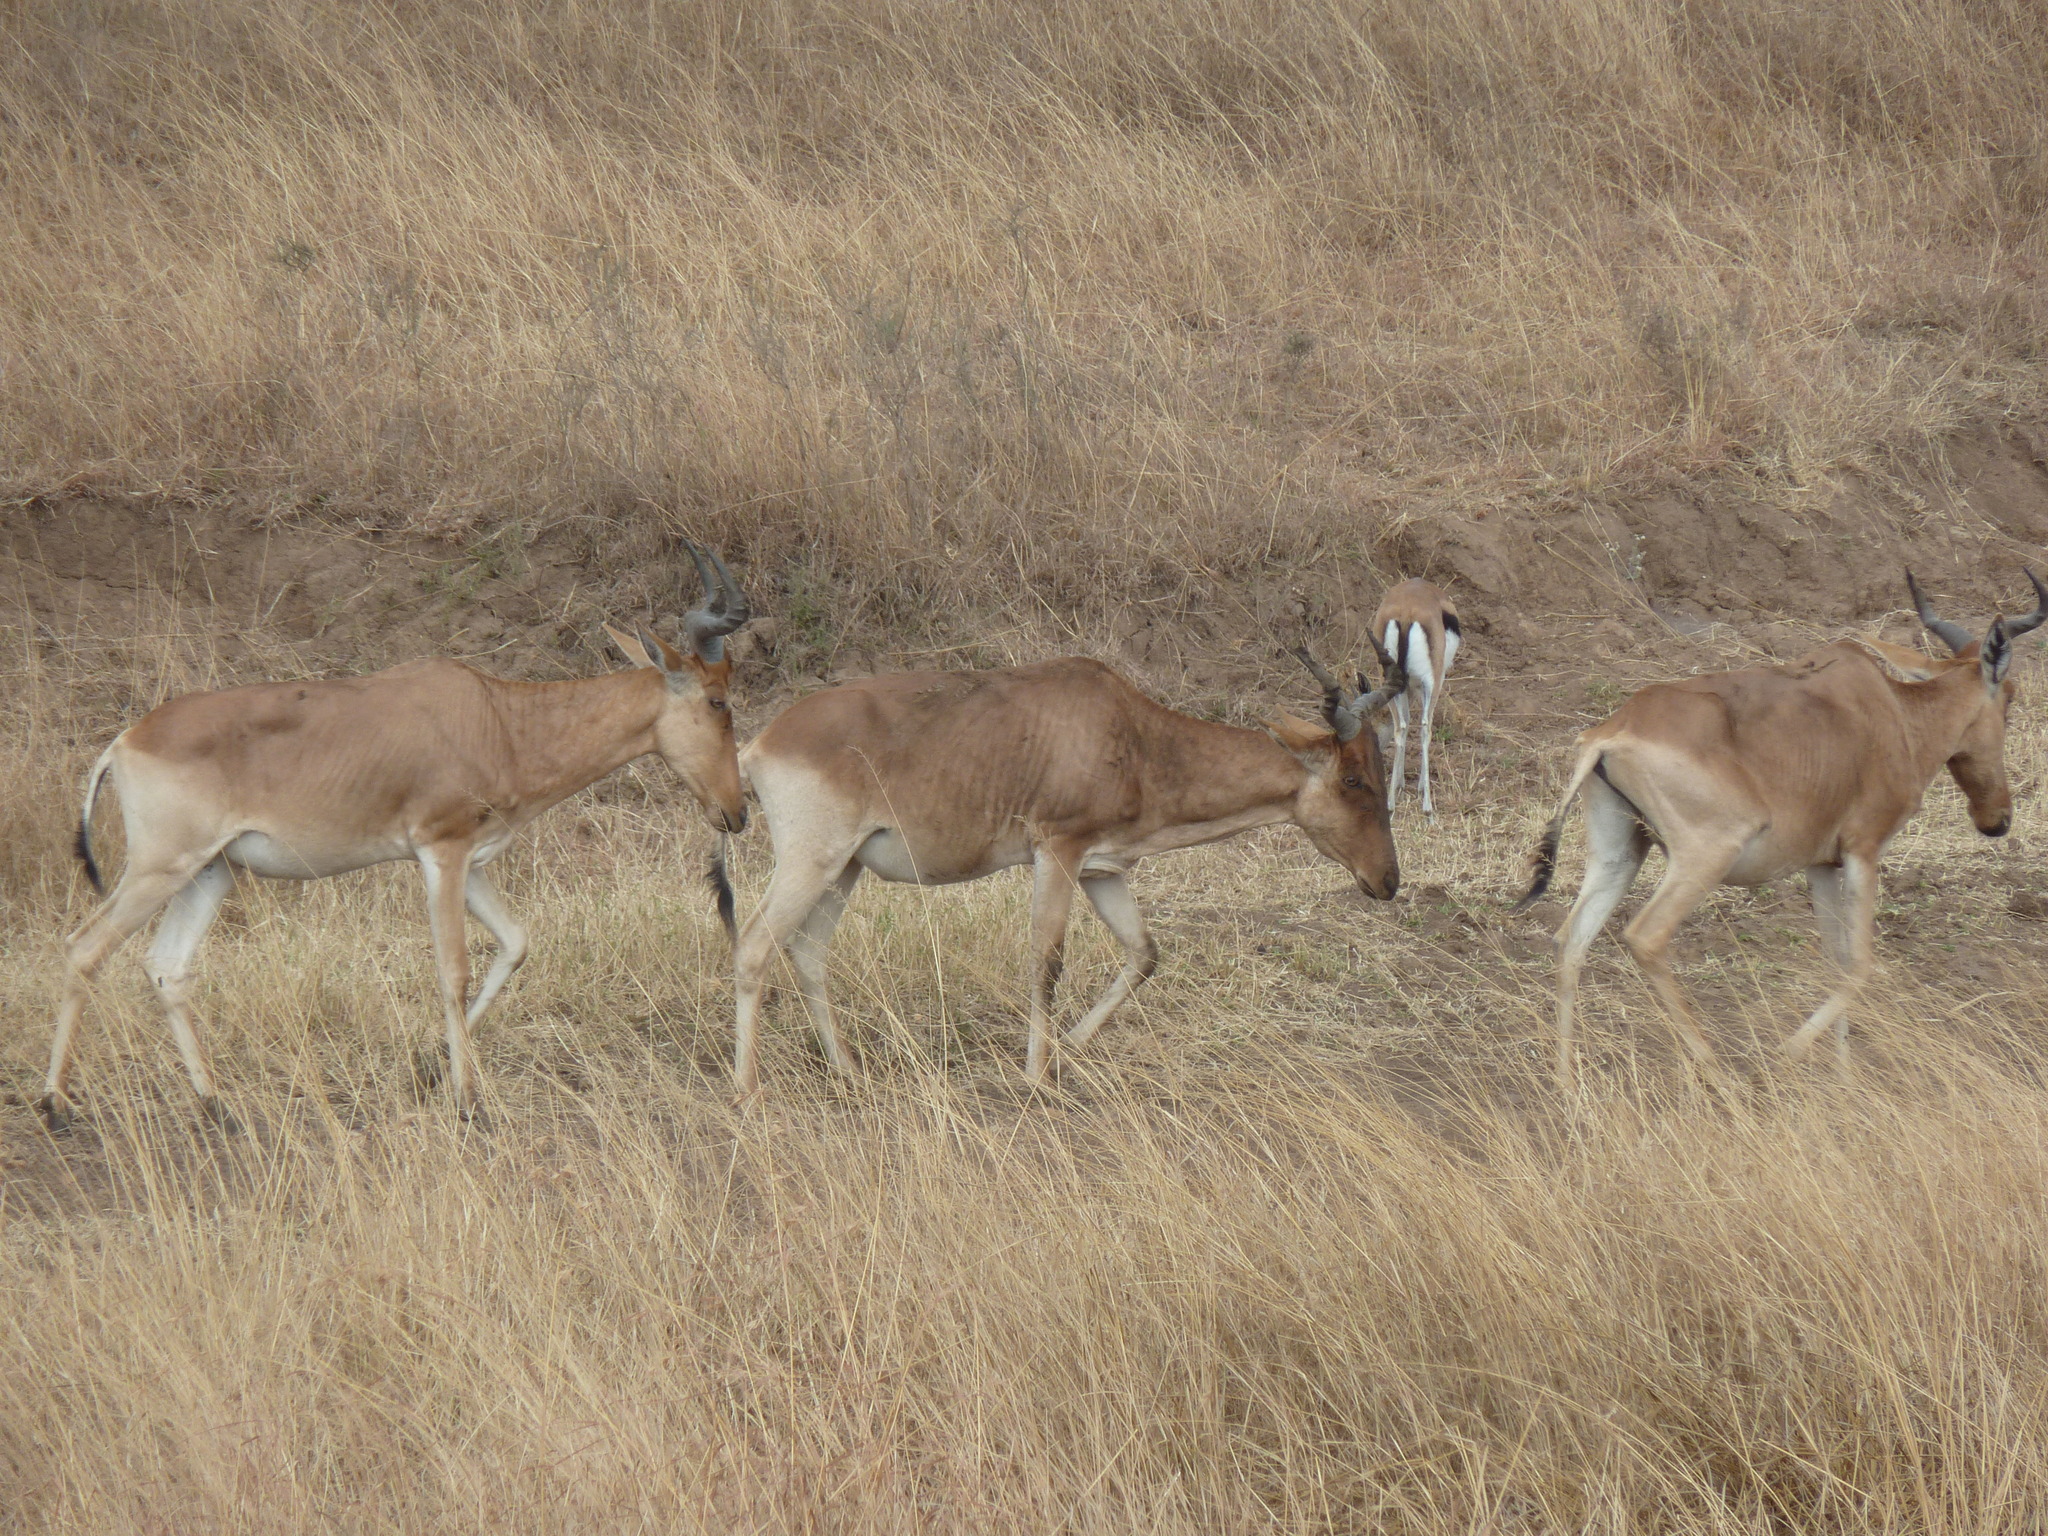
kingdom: Animalia
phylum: Chordata
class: Mammalia
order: Artiodactyla
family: Bovidae
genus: Alcelaphus
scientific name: Alcelaphus buselaphus
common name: Hartebeest
